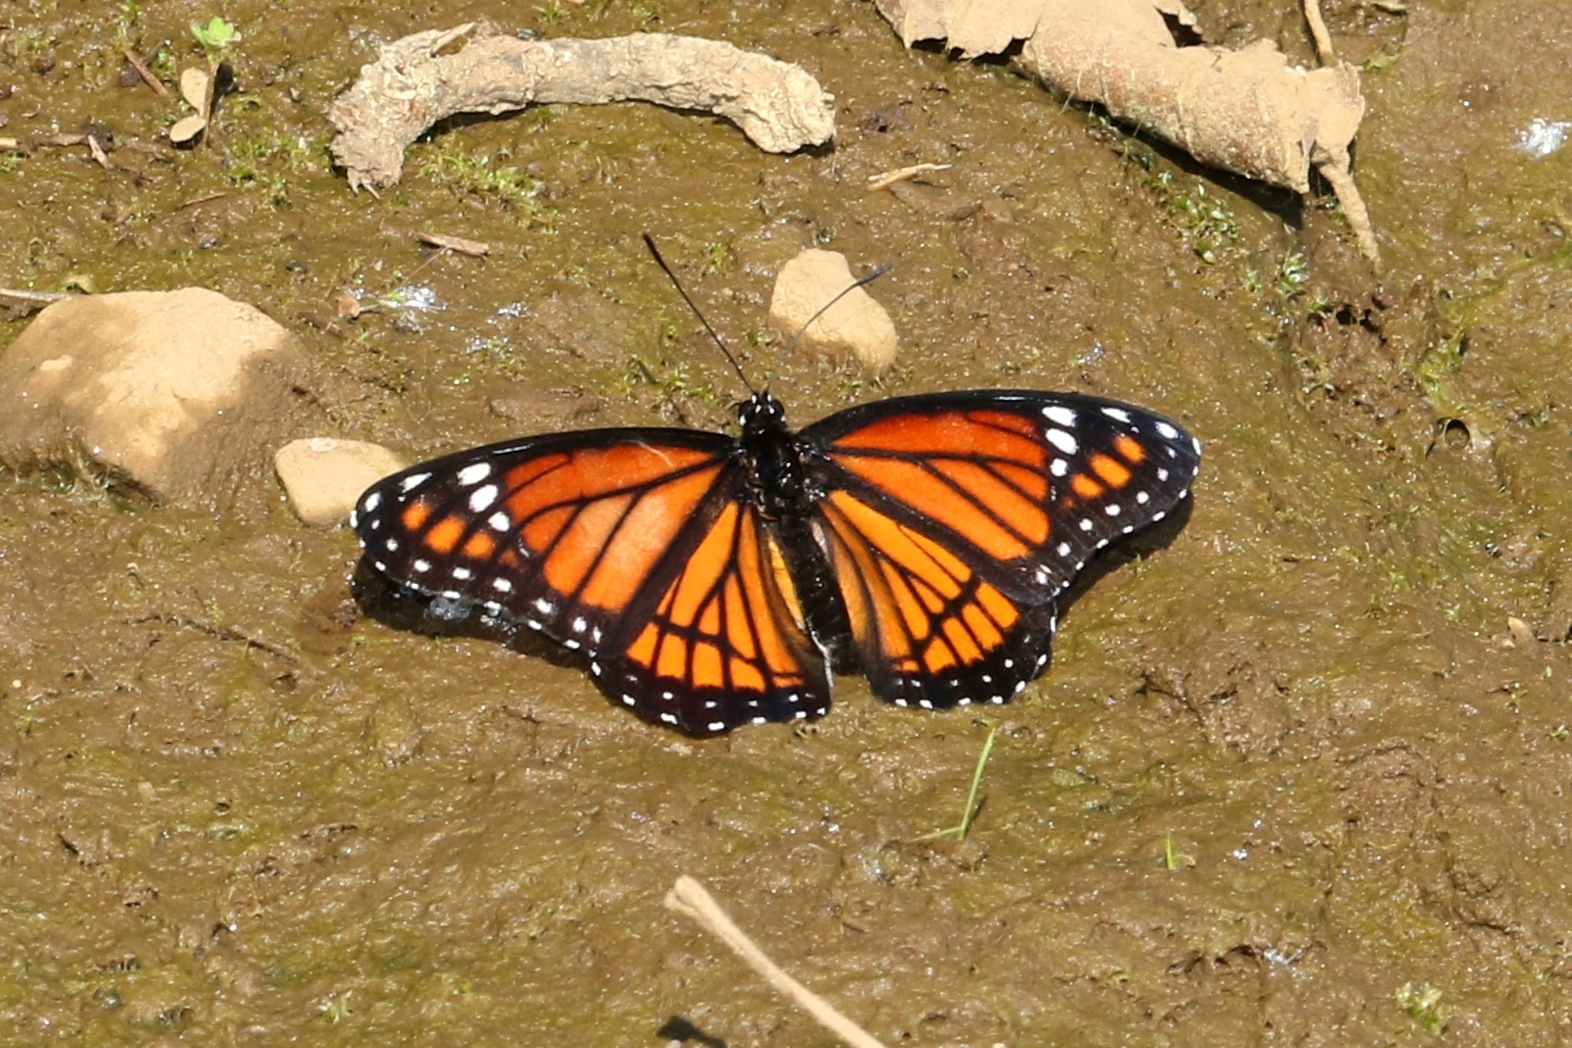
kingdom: Animalia
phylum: Arthropoda
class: Insecta
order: Lepidoptera
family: Nymphalidae
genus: Limenitis
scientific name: Limenitis archippus
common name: Viceroy
